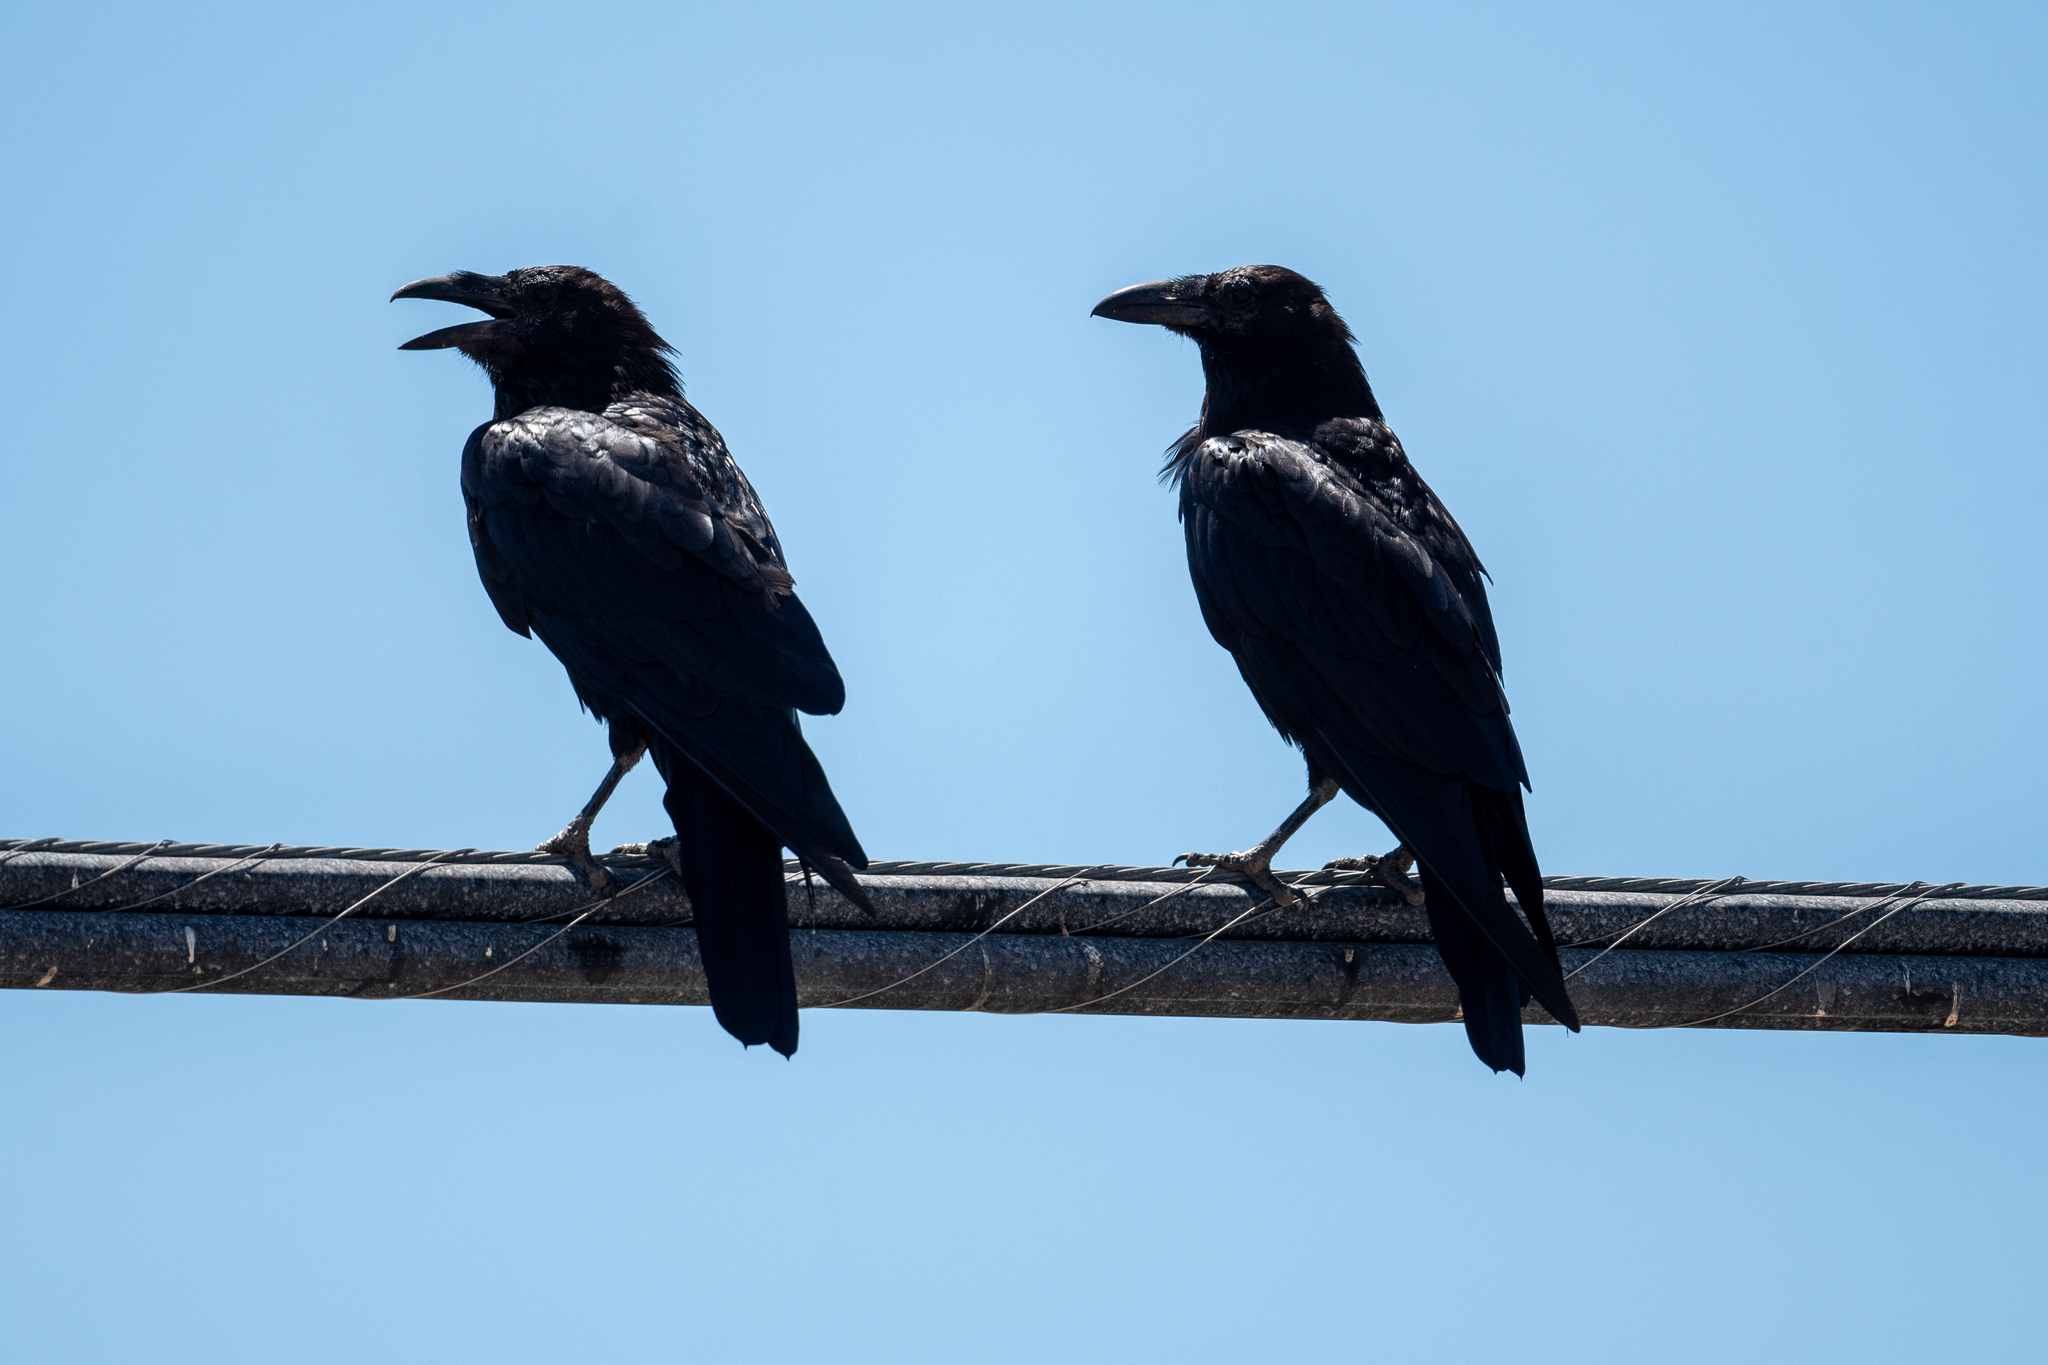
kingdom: Animalia
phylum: Chordata
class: Aves
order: Passeriformes
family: Corvidae
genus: Corvus
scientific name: Corvus corax
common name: Common raven
